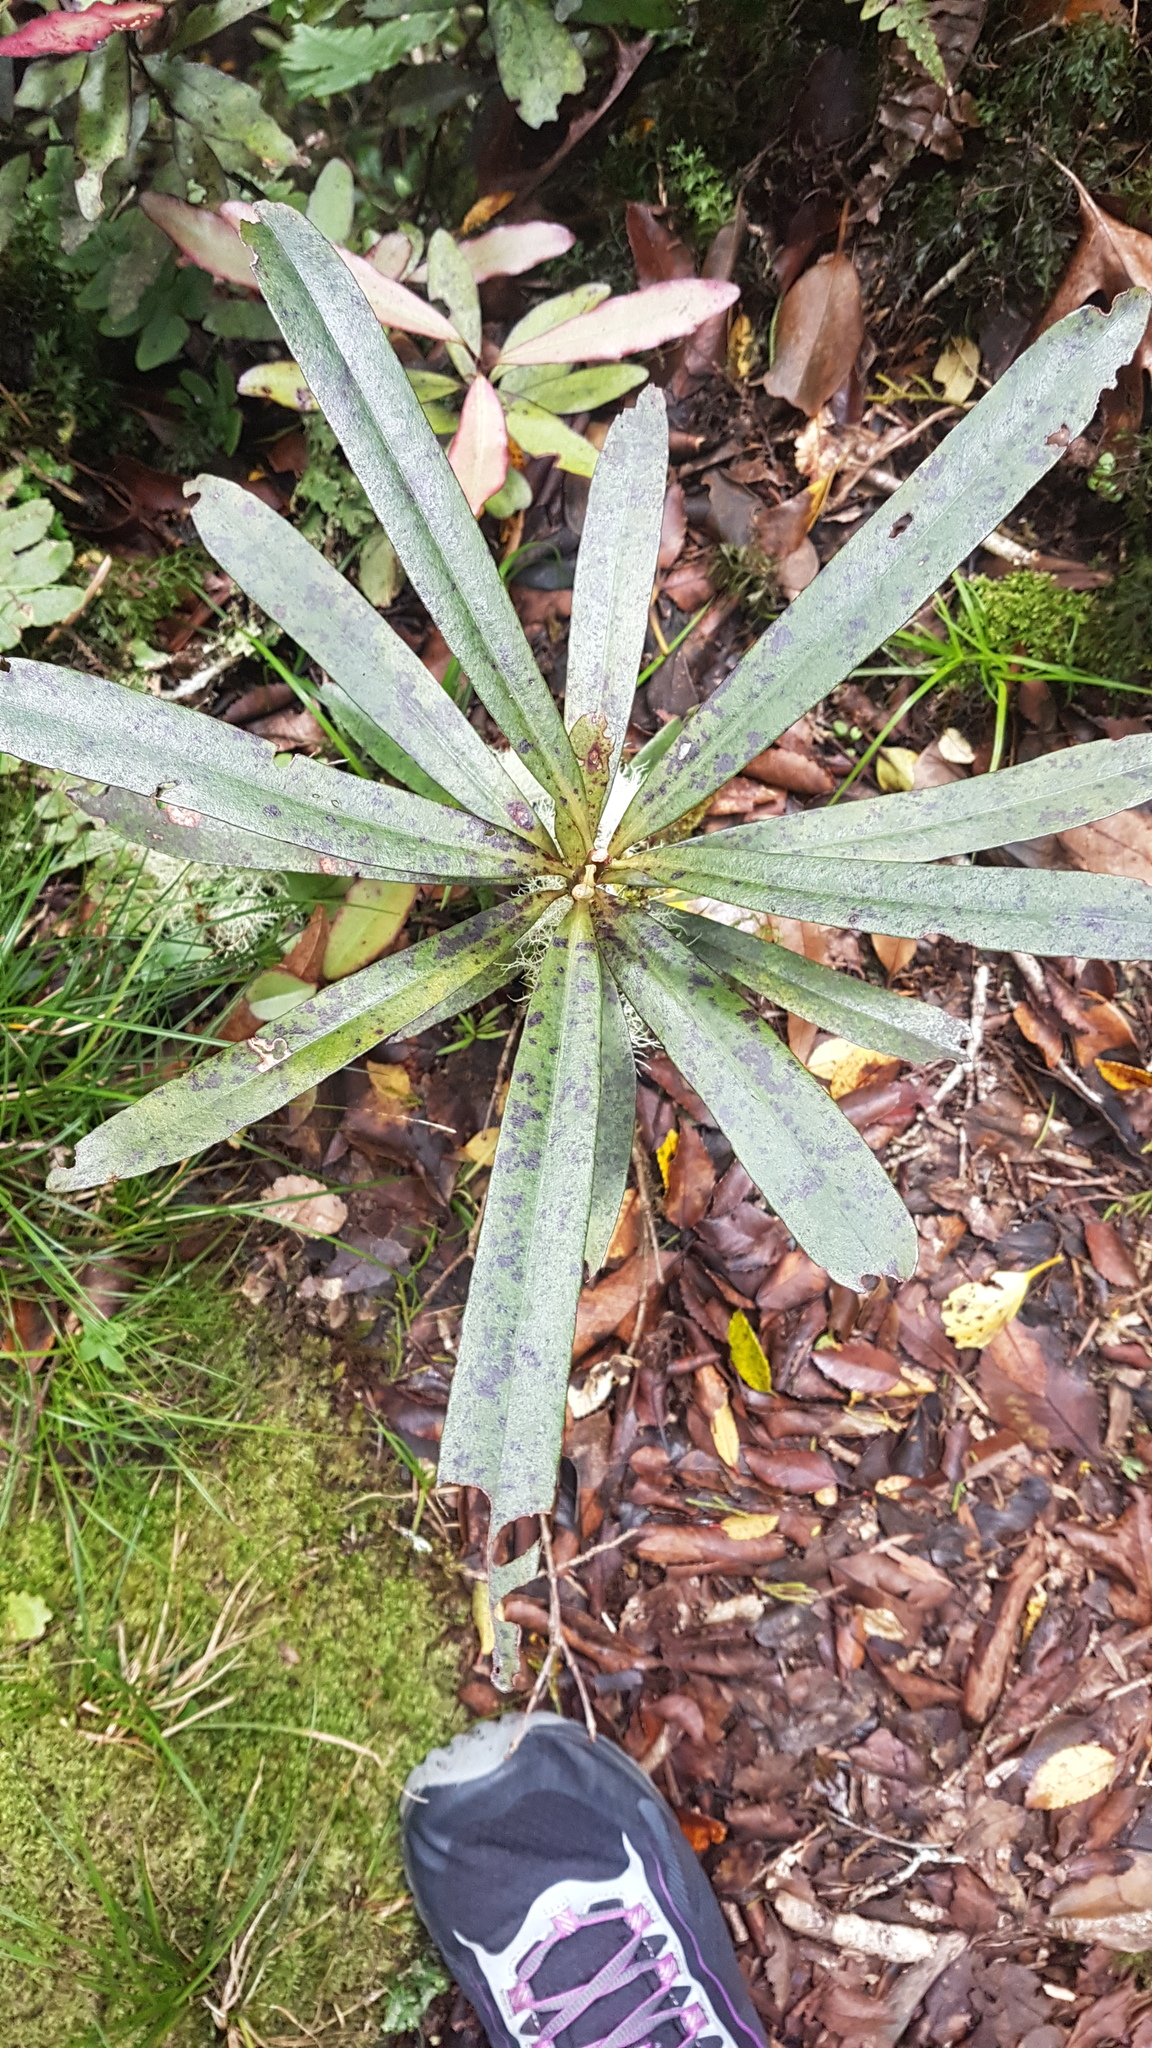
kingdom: Plantae
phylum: Tracheophyta
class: Magnoliopsida
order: Ericales
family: Primulaceae
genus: Myrsine
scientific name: Myrsine salicina
